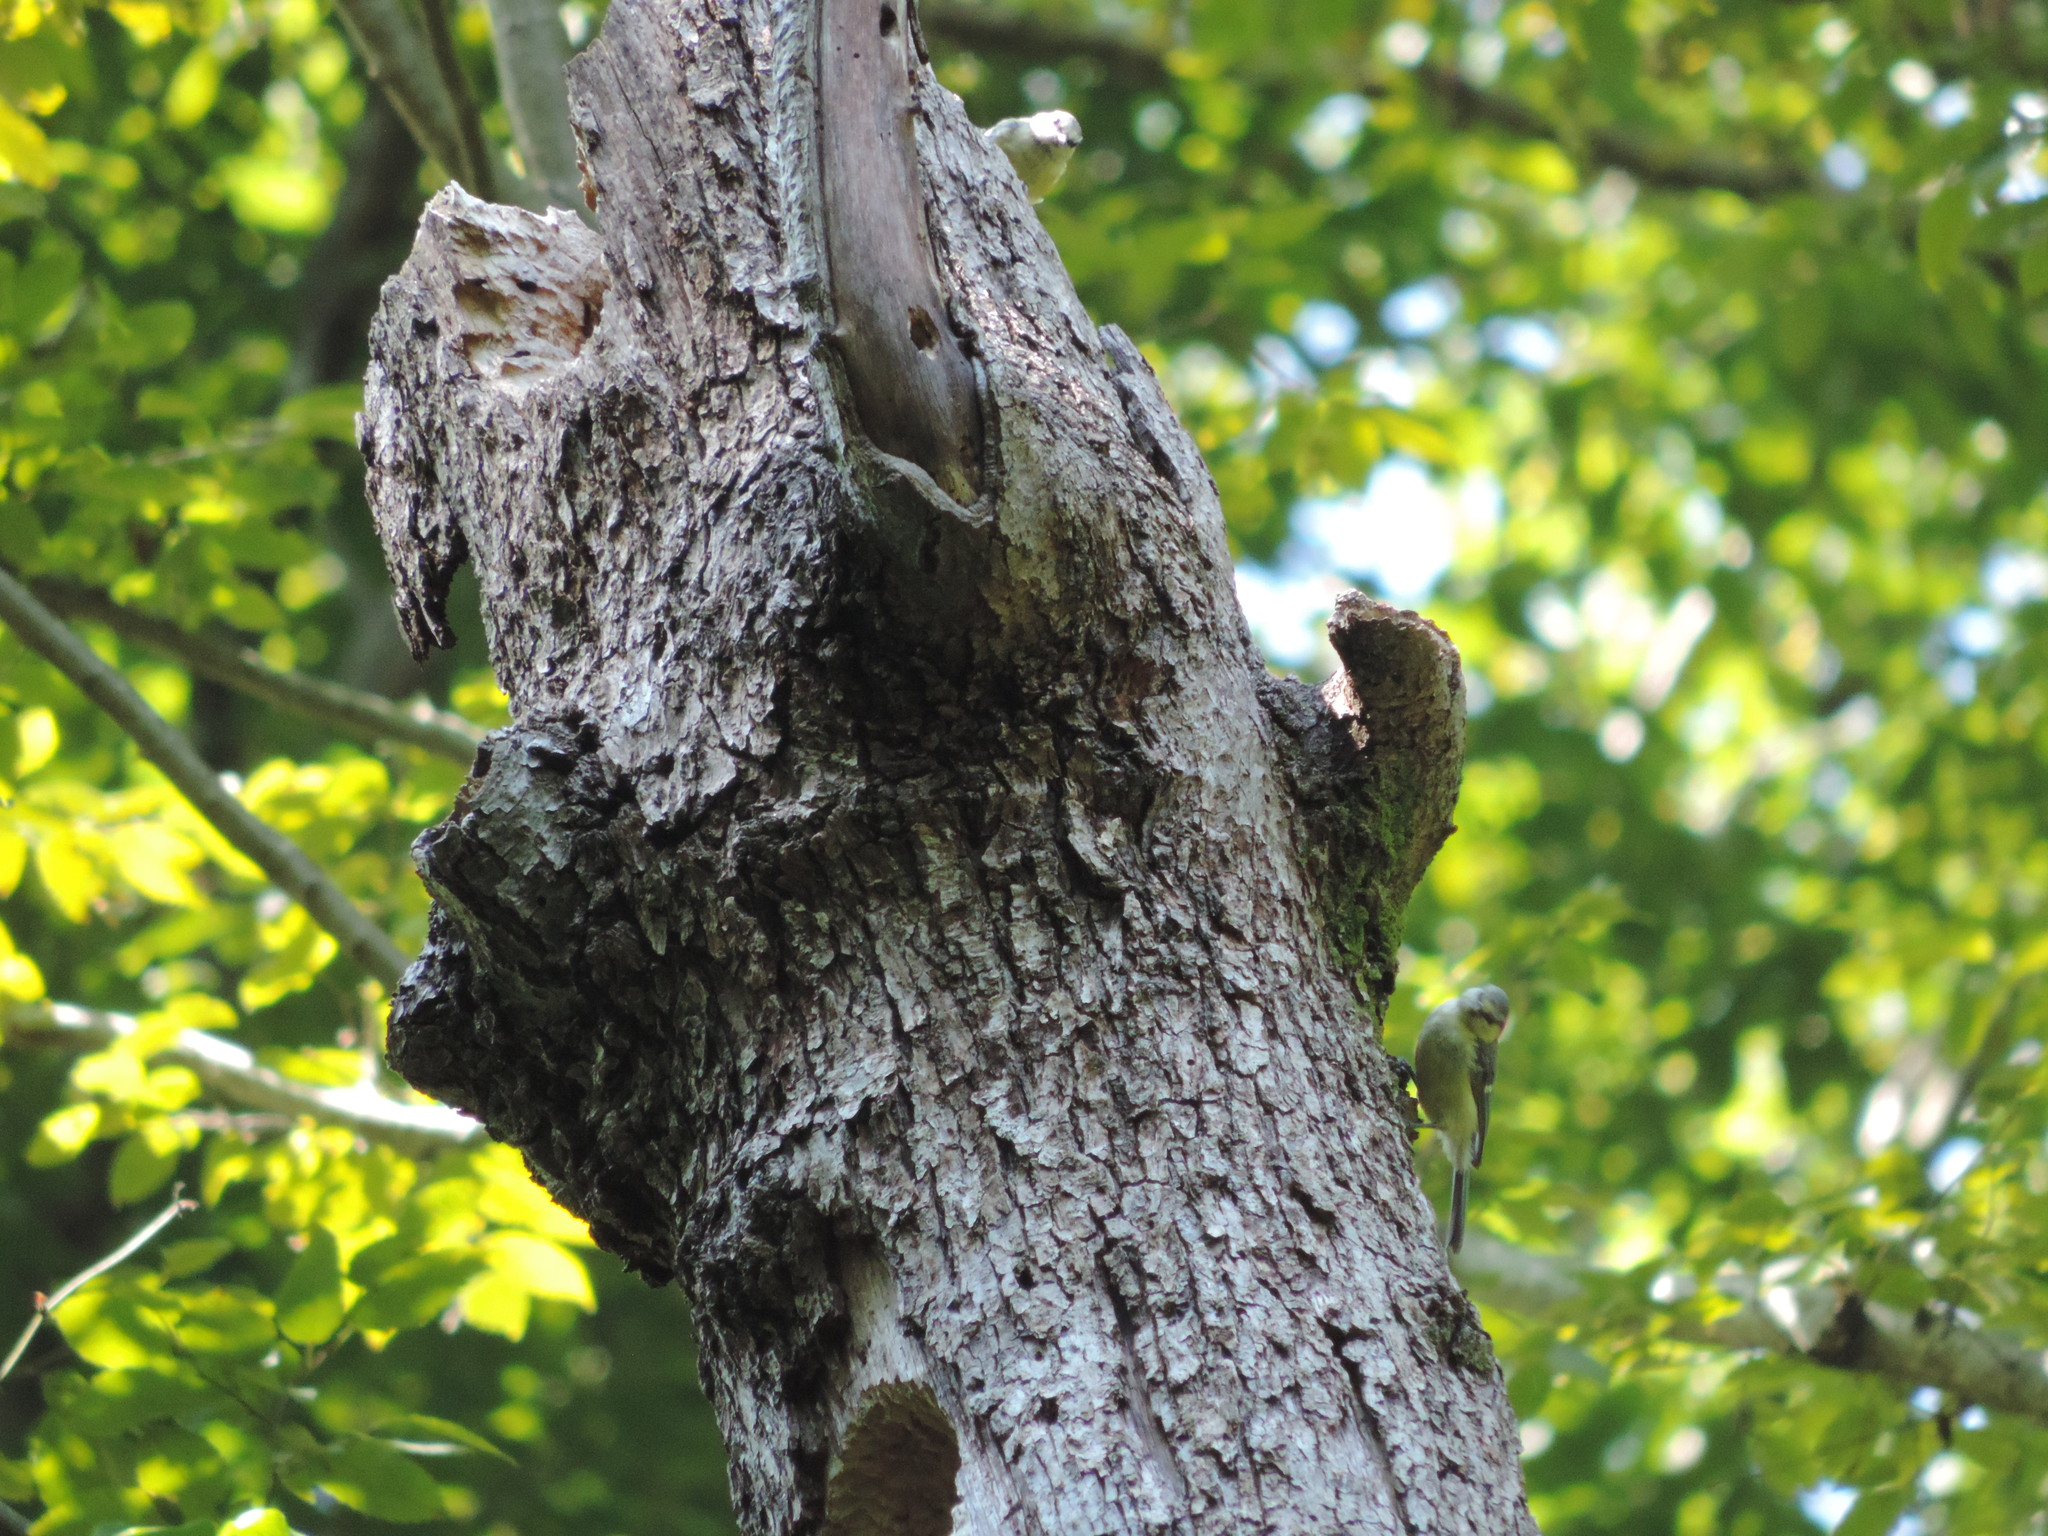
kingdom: Animalia
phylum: Chordata
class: Aves
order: Passeriformes
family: Paridae
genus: Cyanistes
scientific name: Cyanistes caeruleus
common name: Eurasian blue tit
